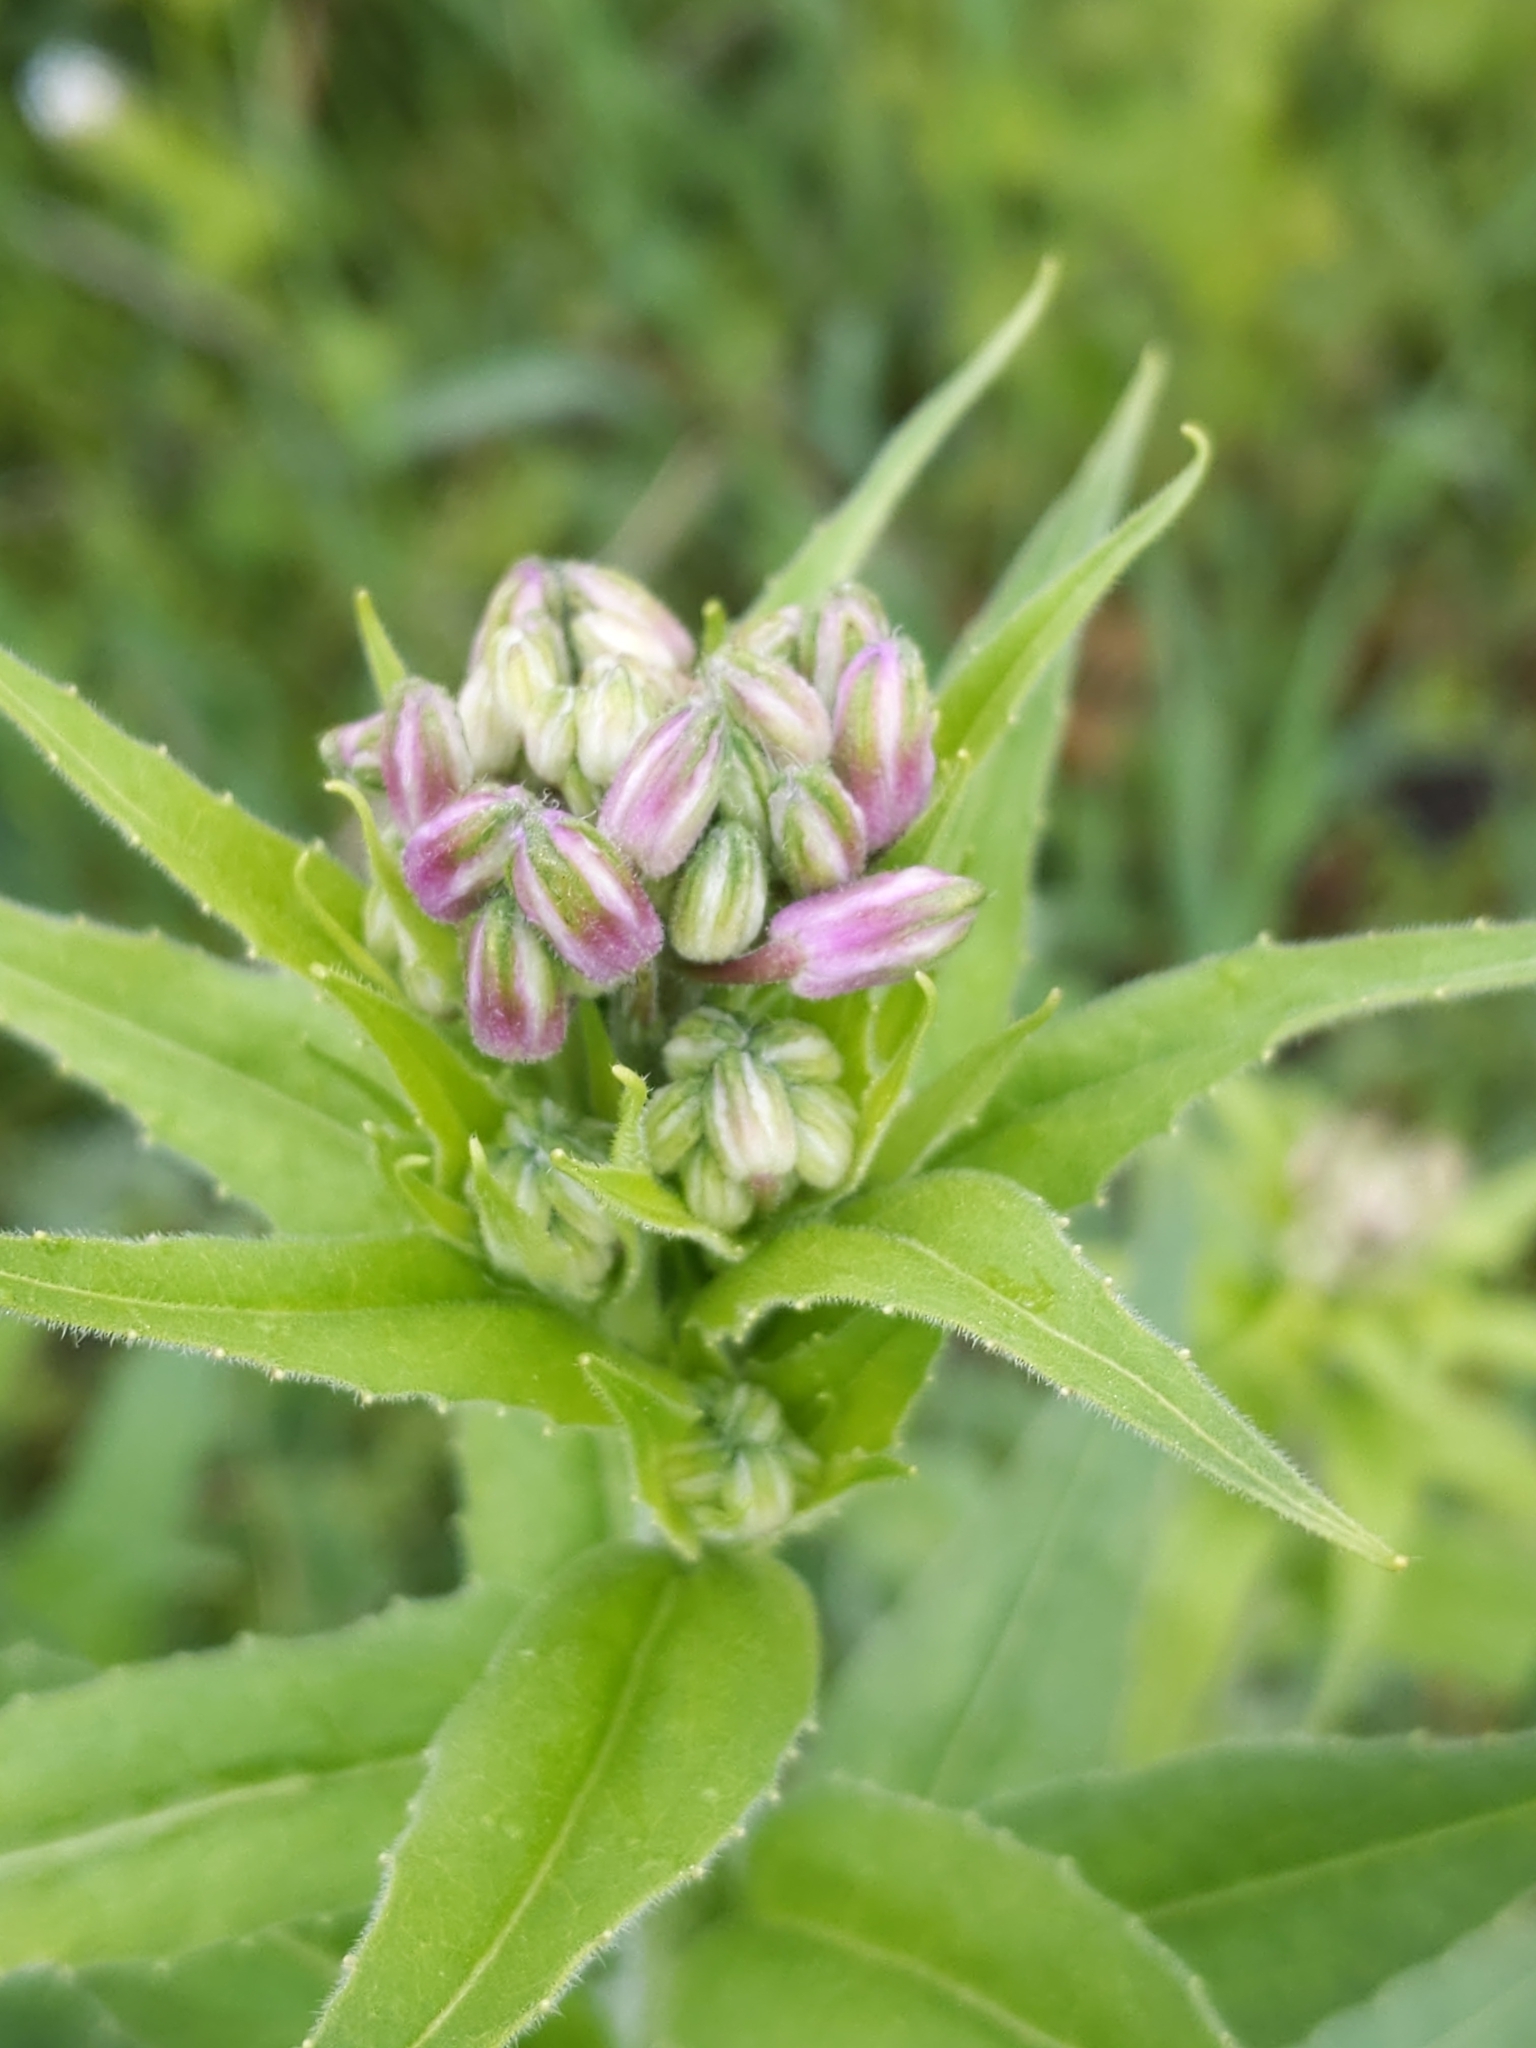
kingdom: Plantae
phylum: Tracheophyta
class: Magnoliopsida
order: Brassicales
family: Brassicaceae
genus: Hesperis
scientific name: Hesperis matronalis
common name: Dame's-violet
